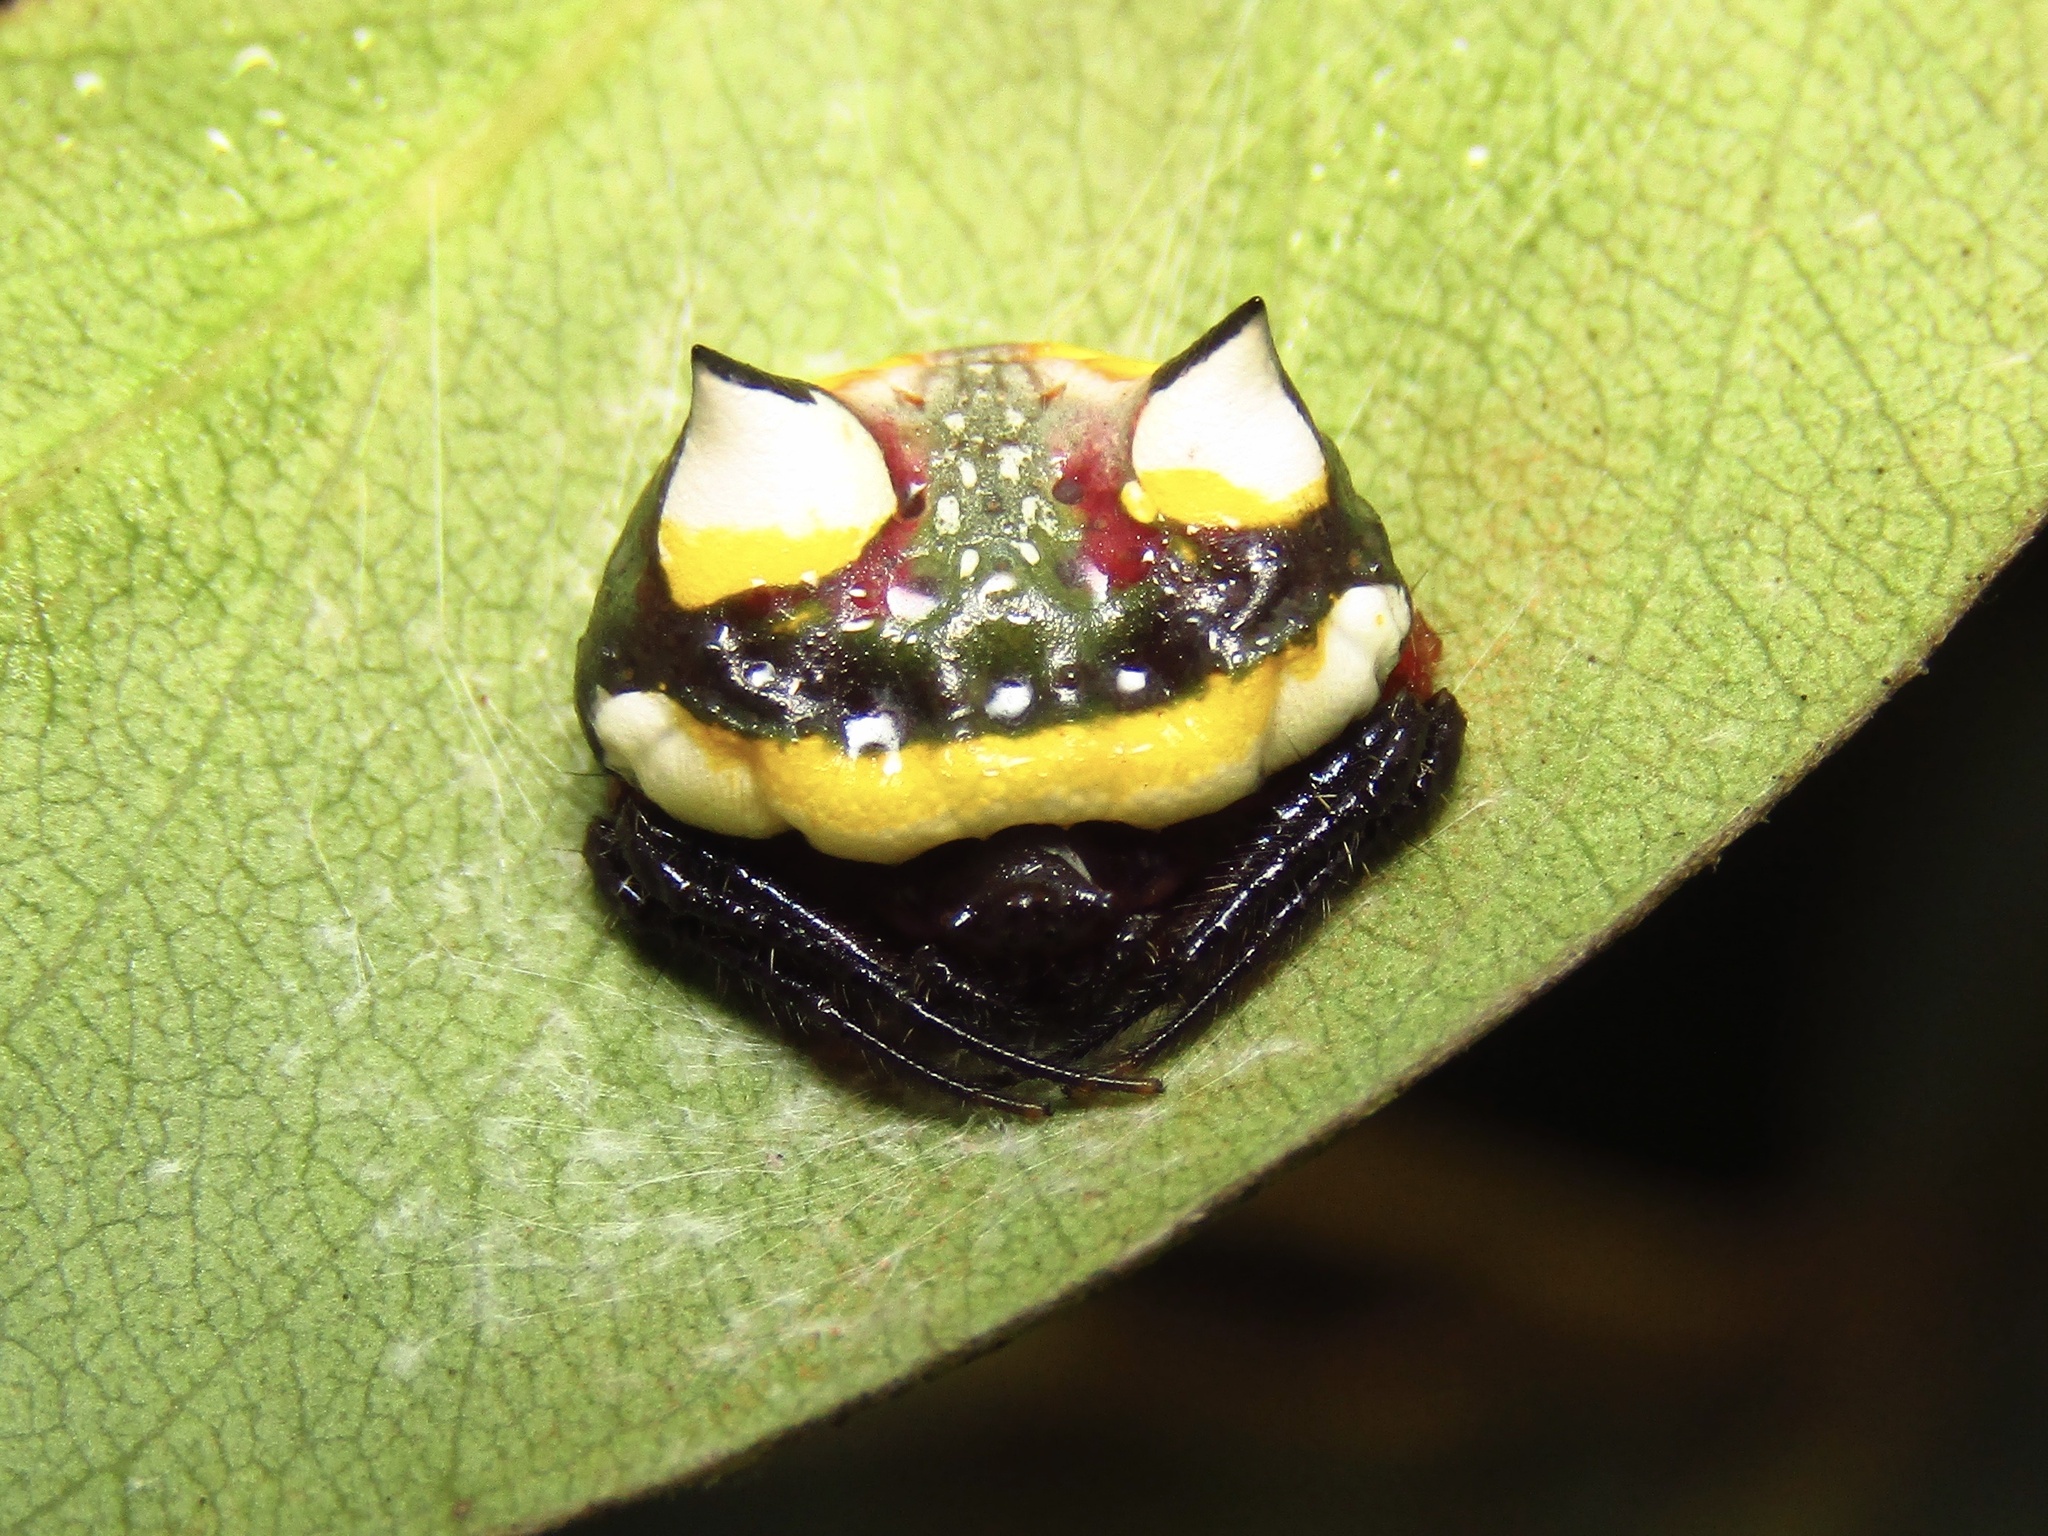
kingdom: Animalia
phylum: Arthropoda
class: Arachnida
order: Araneae
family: Araneidae
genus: Poecilopachys
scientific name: Poecilopachys australasia
